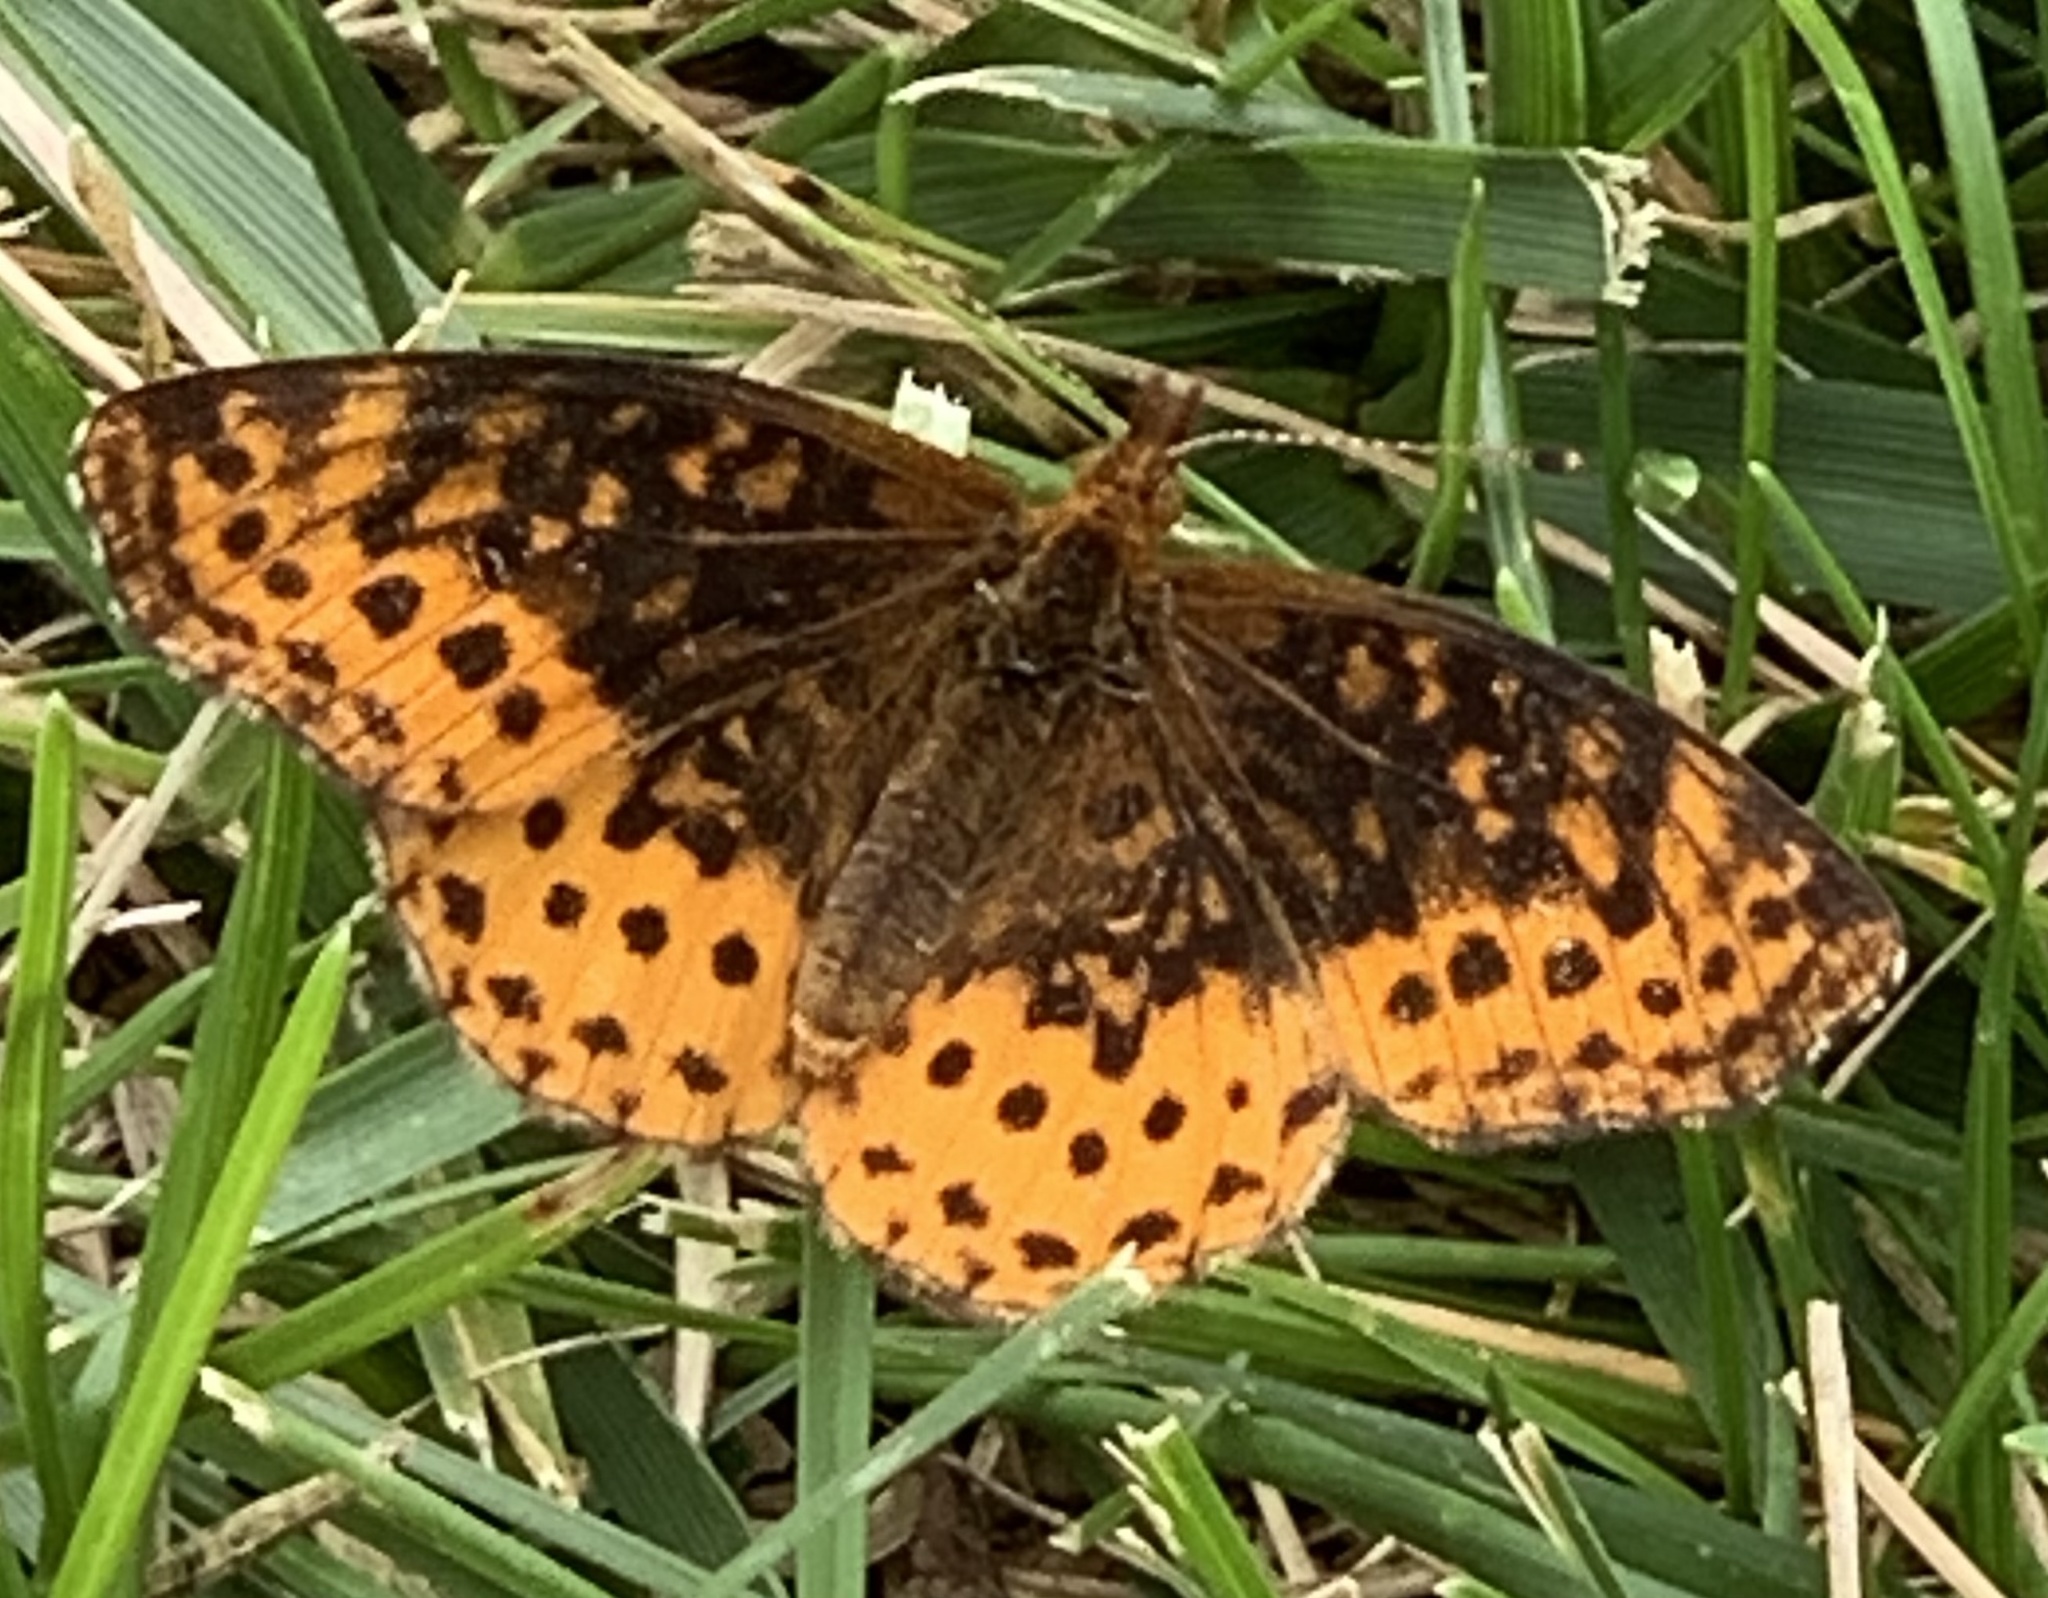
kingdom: Animalia
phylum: Arthropoda
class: Insecta
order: Lepidoptera
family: Nymphalidae
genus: Clossiana
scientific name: Clossiana toddi
